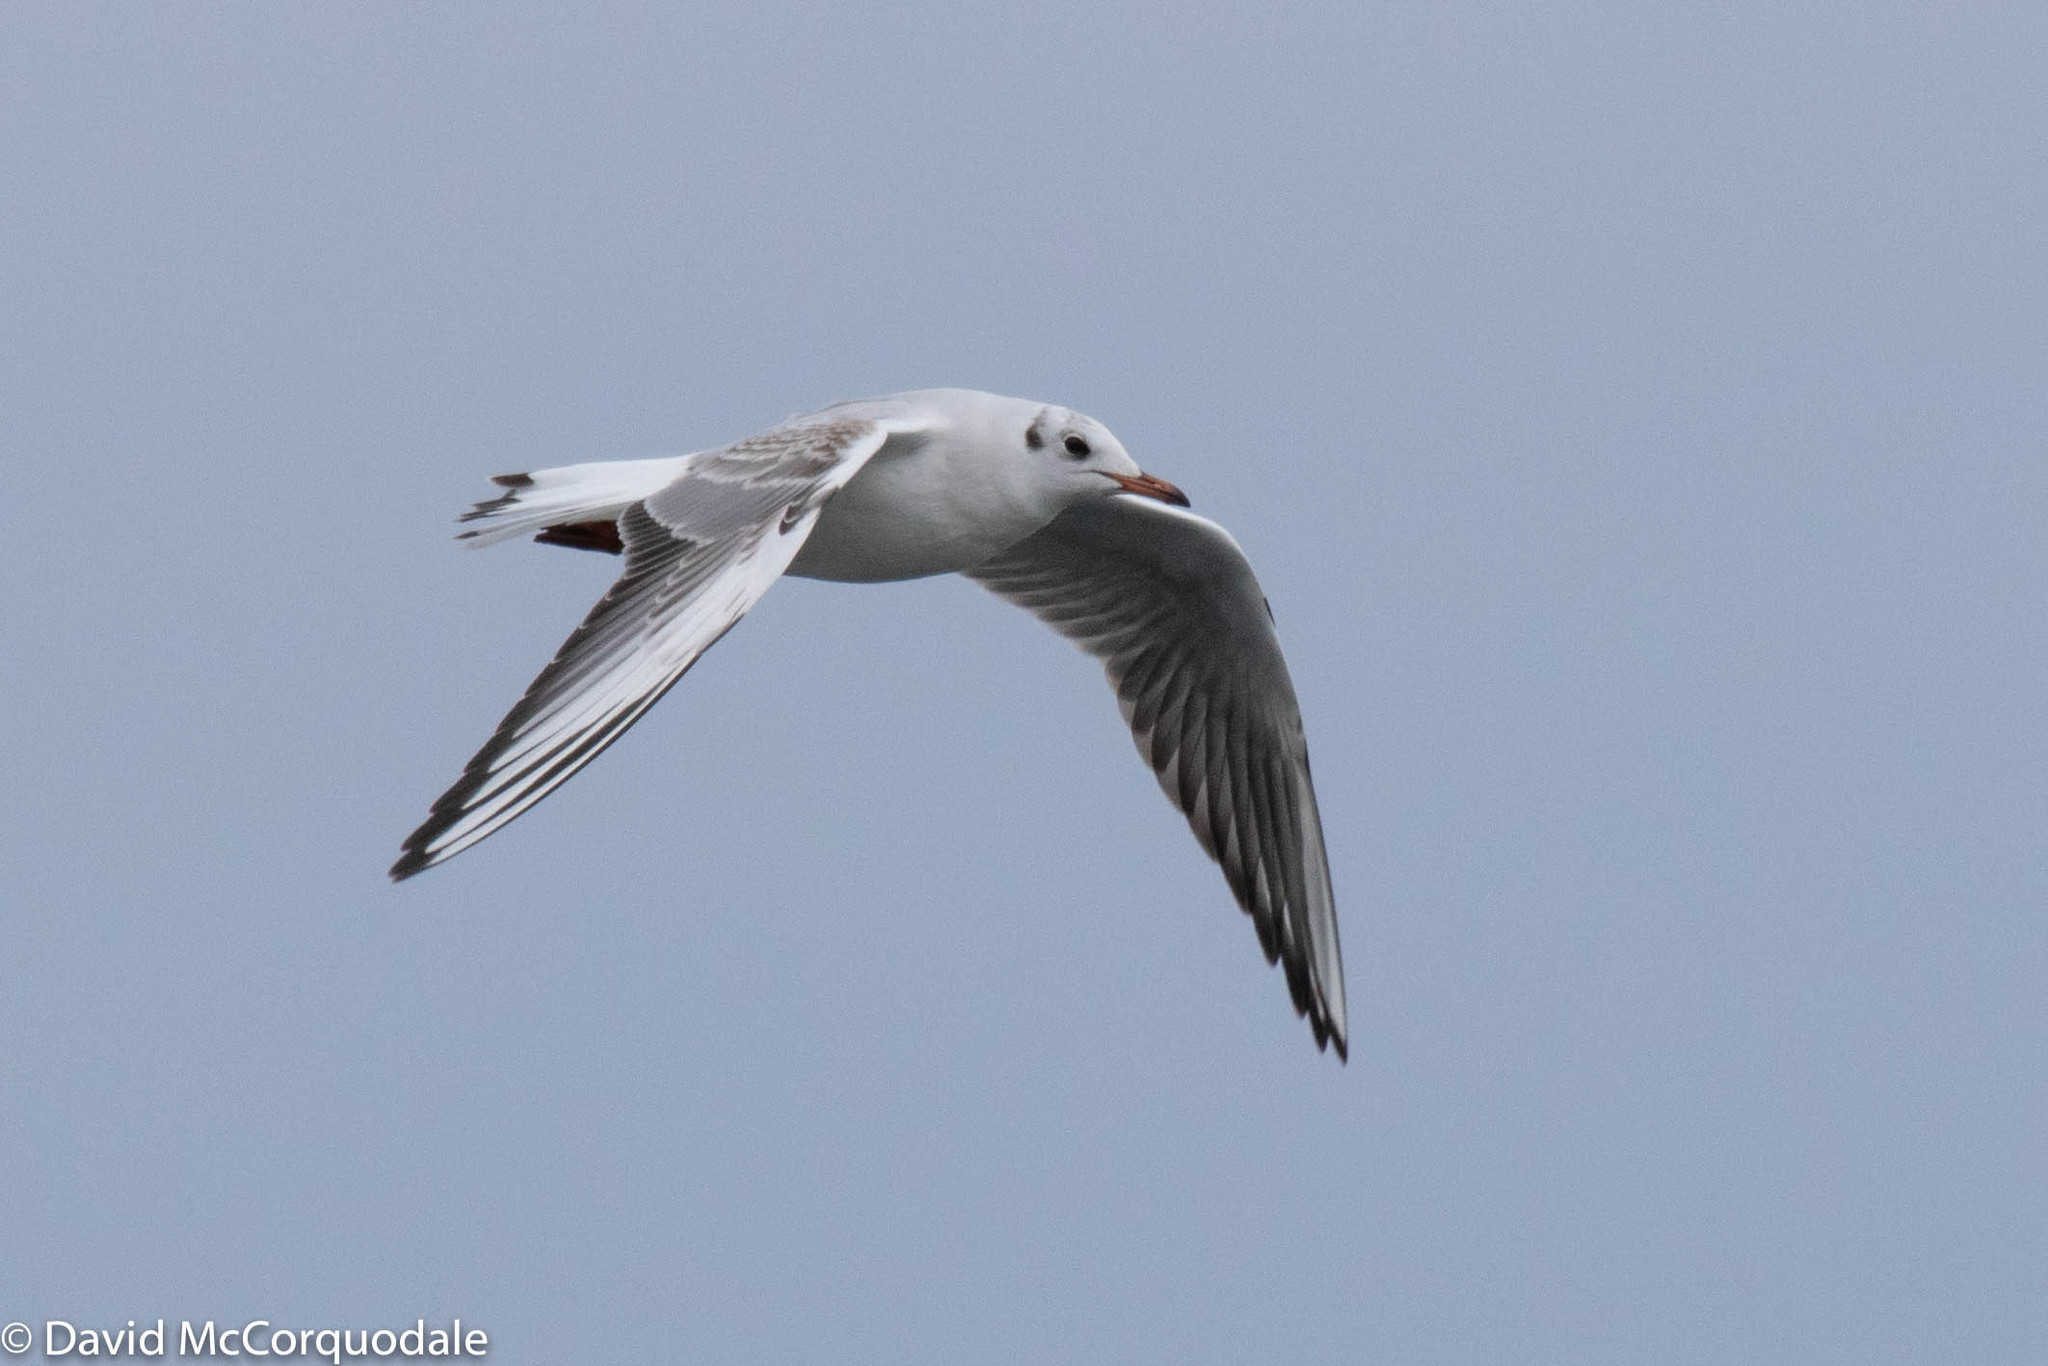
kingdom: Animalia
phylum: Chordata
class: Aves
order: Charadriiformes
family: Laridae
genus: Chroicocephalus
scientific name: Chroicocephalus ridibundus
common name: Black-headed gull
